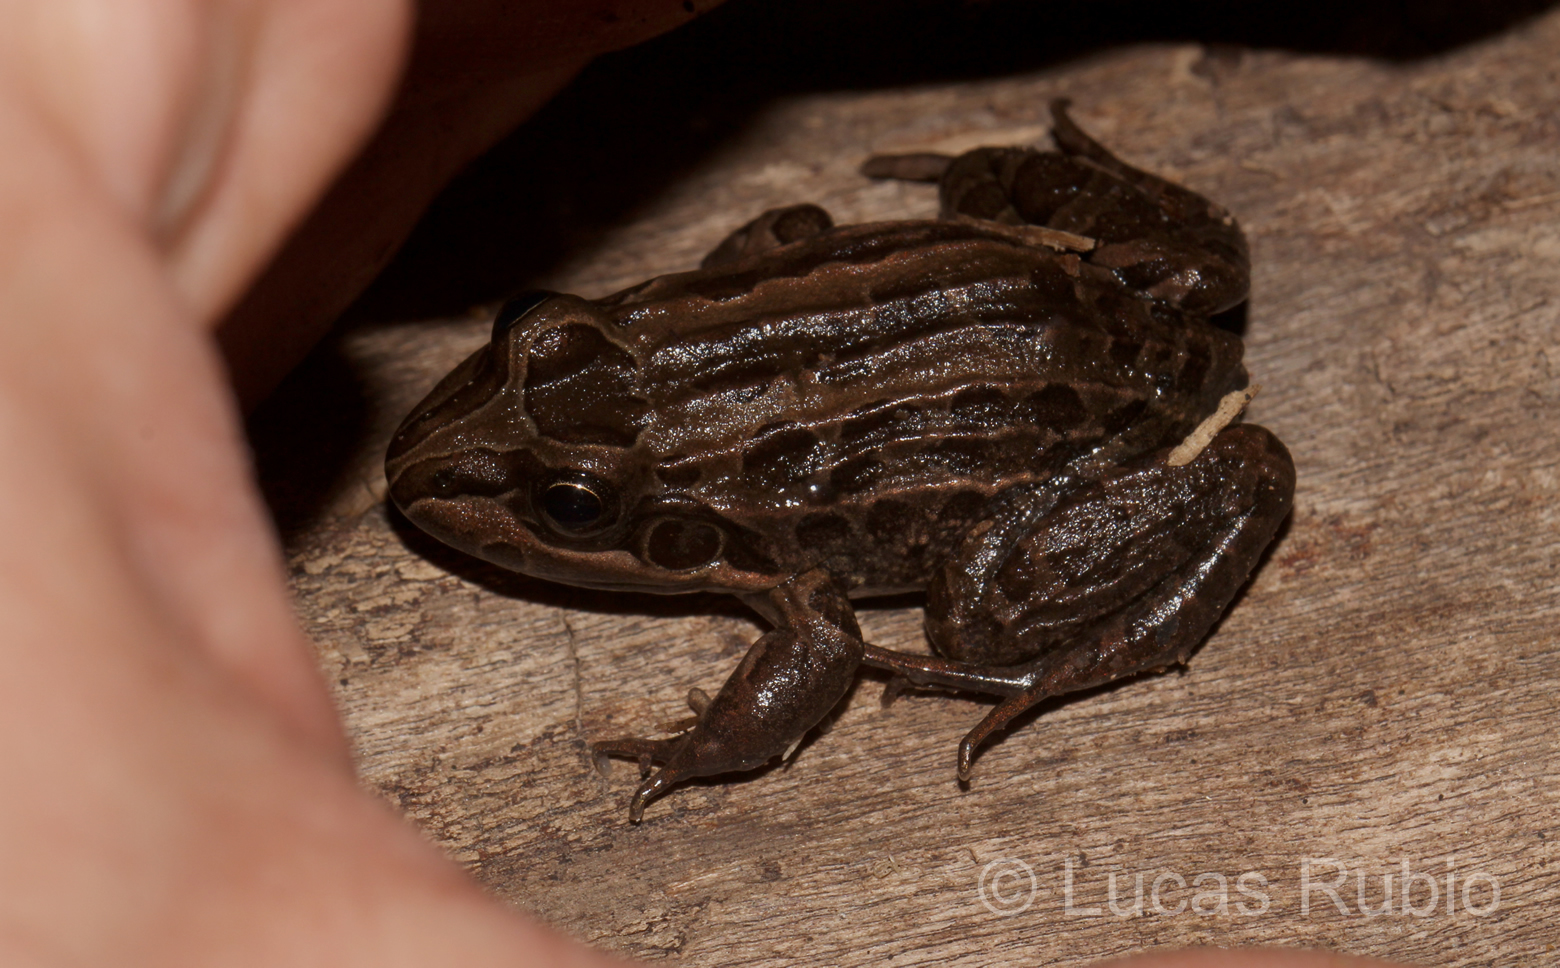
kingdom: Animalia
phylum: Chordata
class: Amphibia
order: Anura
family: Leptodactylidae
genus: Leptodactylus
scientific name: Leptodactylus luctator
